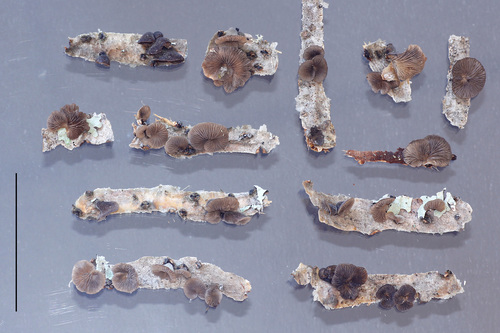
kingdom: Fungi
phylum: Basidiomycota
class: Agaricomycetes
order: Agaricales
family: Pleurotaceae
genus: Hohenbuehelia
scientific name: Hohenbuehelia nigra
